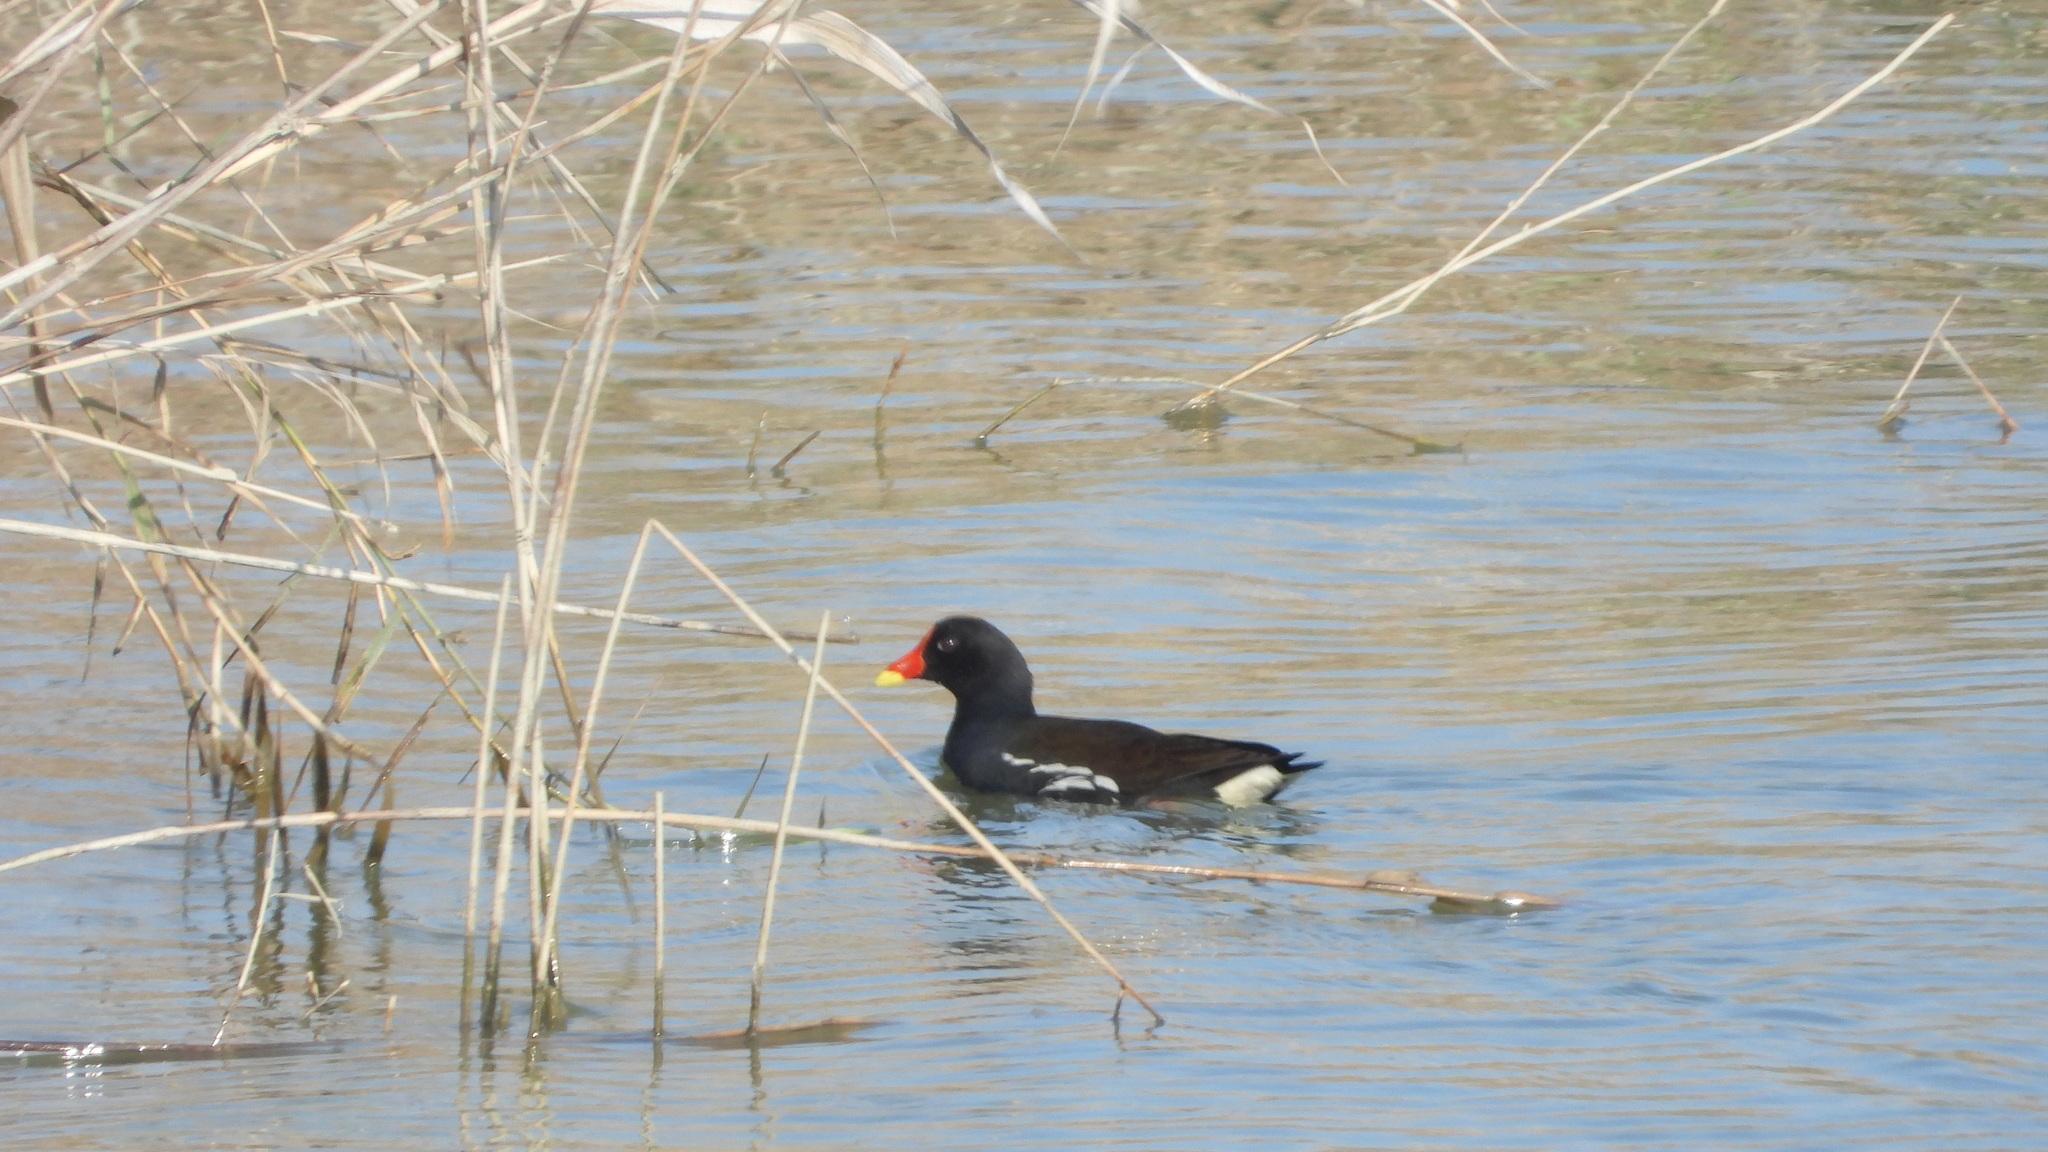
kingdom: Animalia
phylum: Chordata
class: Aves
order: Gruiformes
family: Rallidae
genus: Gallinula
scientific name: Gallinula chloropus
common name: Common moorhen
